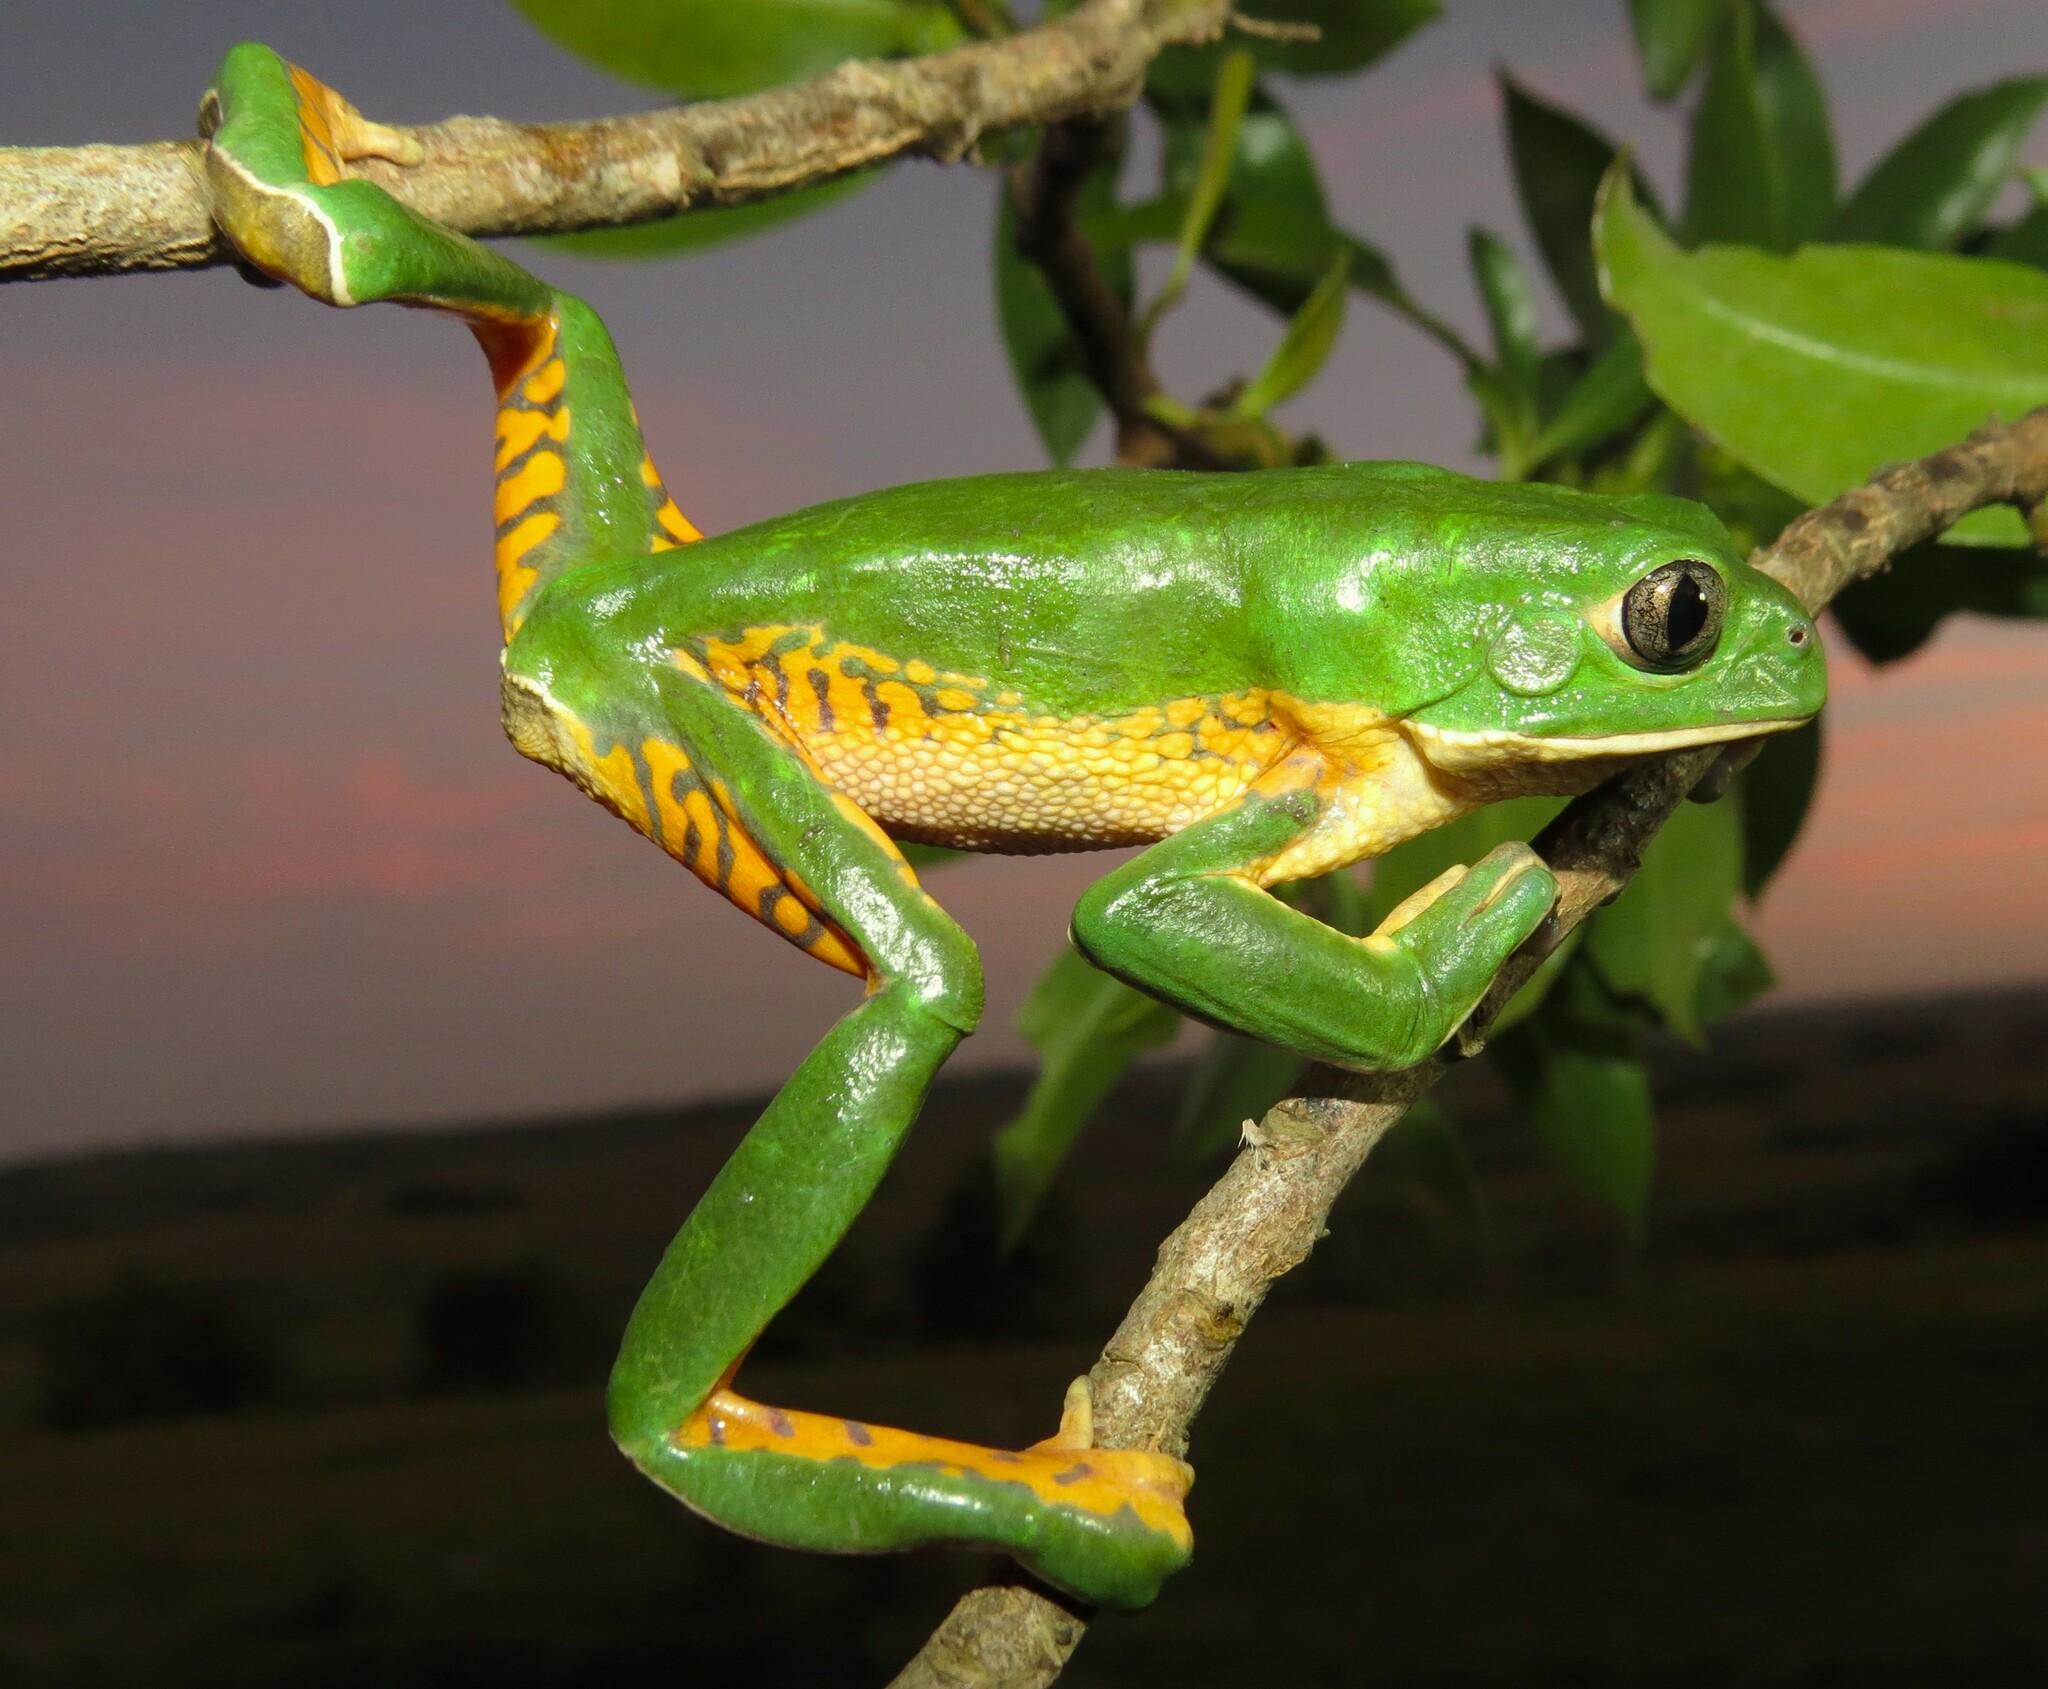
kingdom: Animalia
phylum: Chordata
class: Amphibia
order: Anura
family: Phyllomedusidae
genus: Phyllomedusa
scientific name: Phyllomedusa iheringii
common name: Southern walking leaf frog
